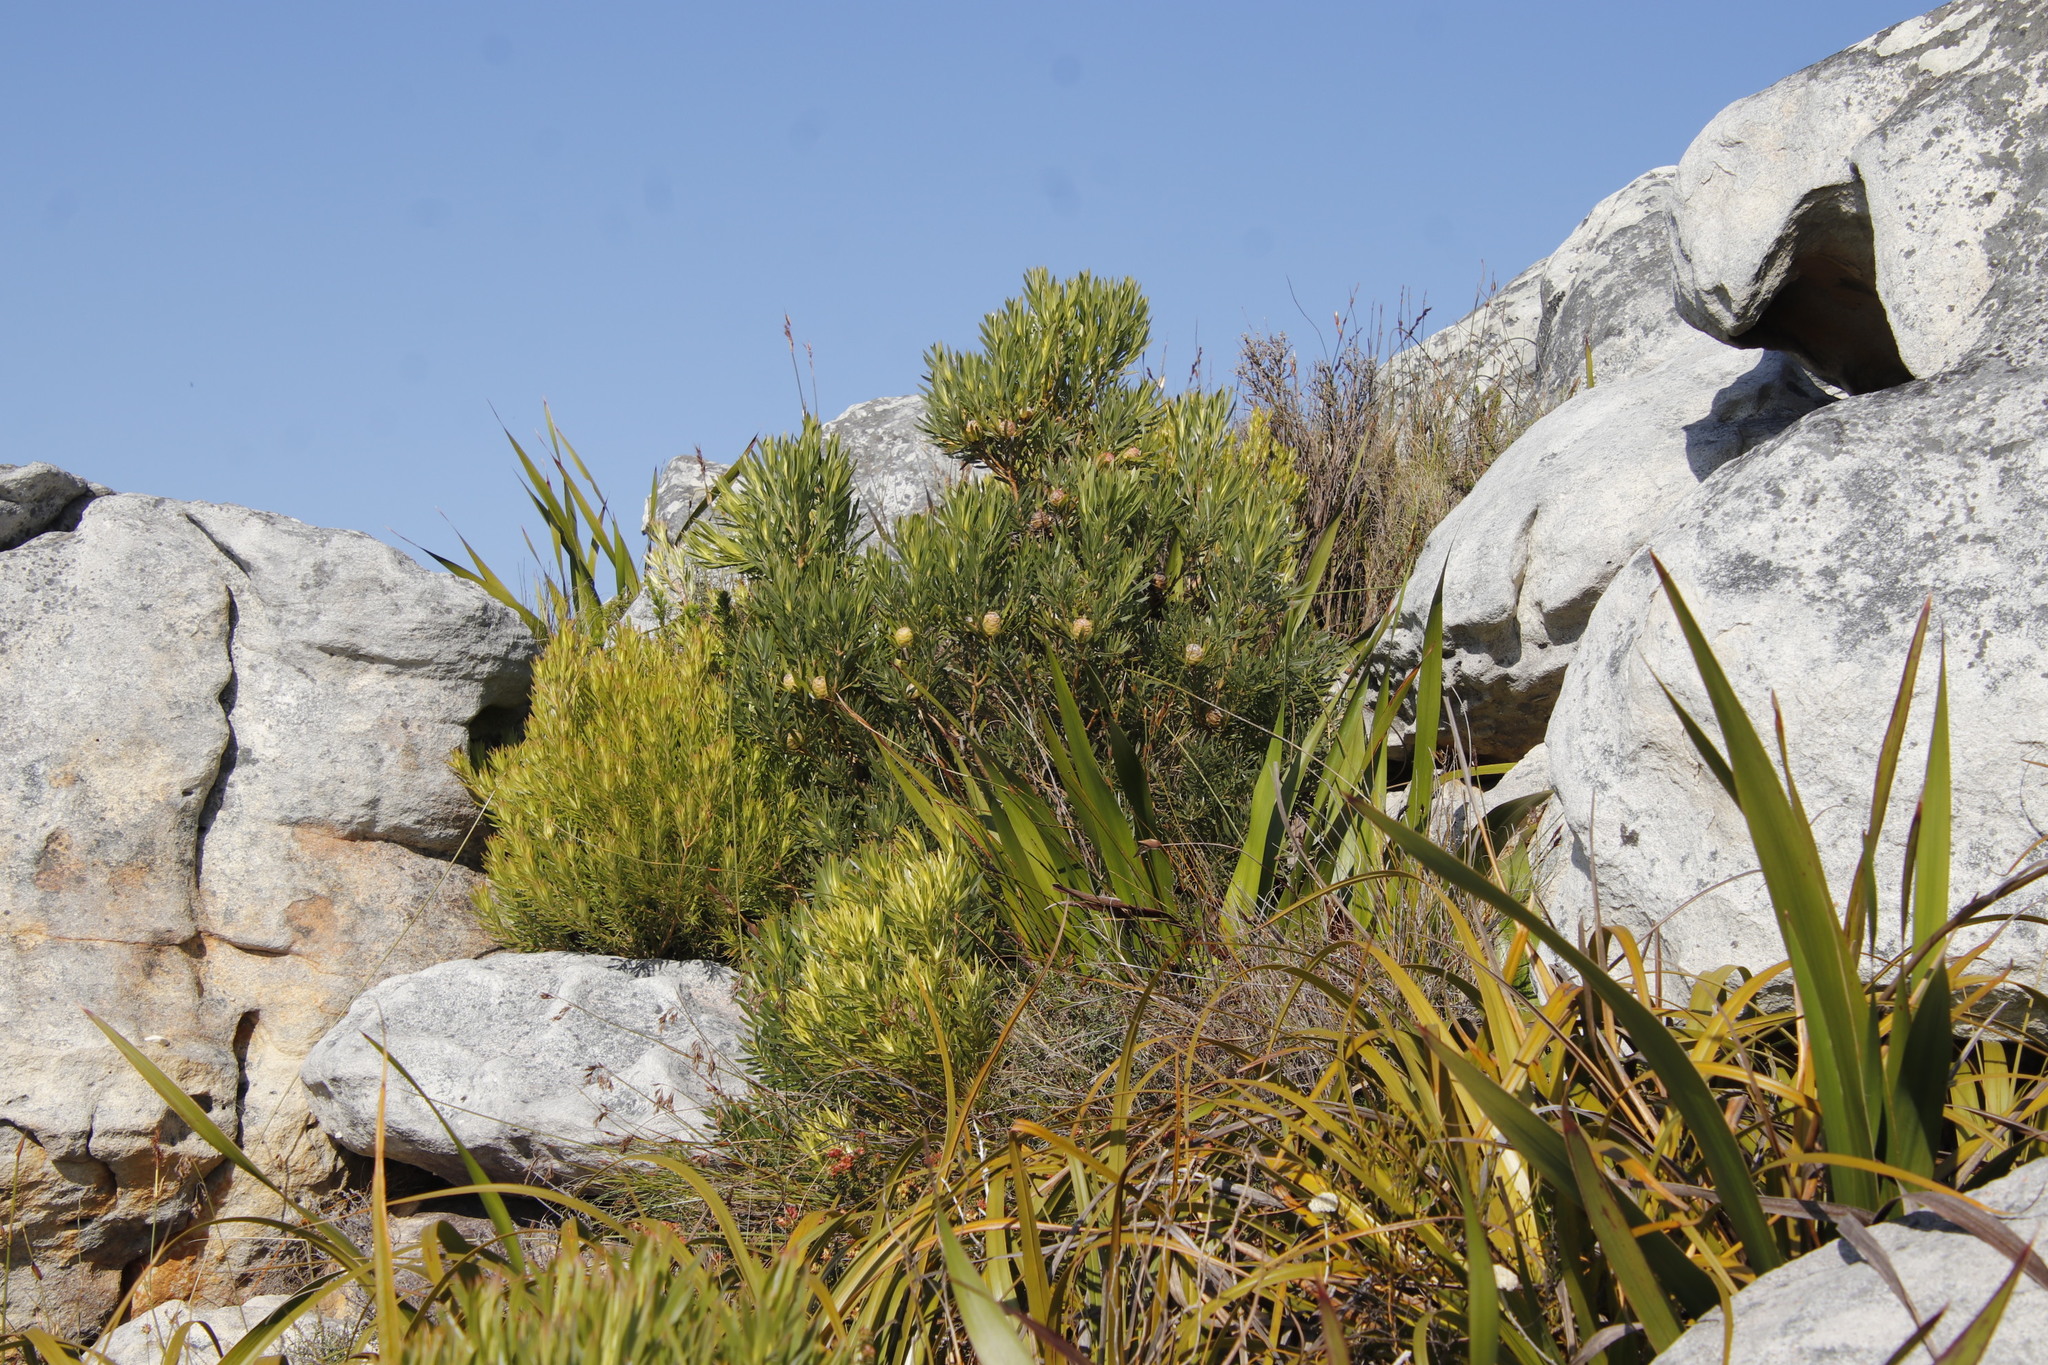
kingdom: Plantae
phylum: Tracheophyta
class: Magnoliopsida
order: Proteales
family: Proteaceae
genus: Leucadendron
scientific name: Leucadendron xanthoconus
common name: Sickle-leaf conebush
